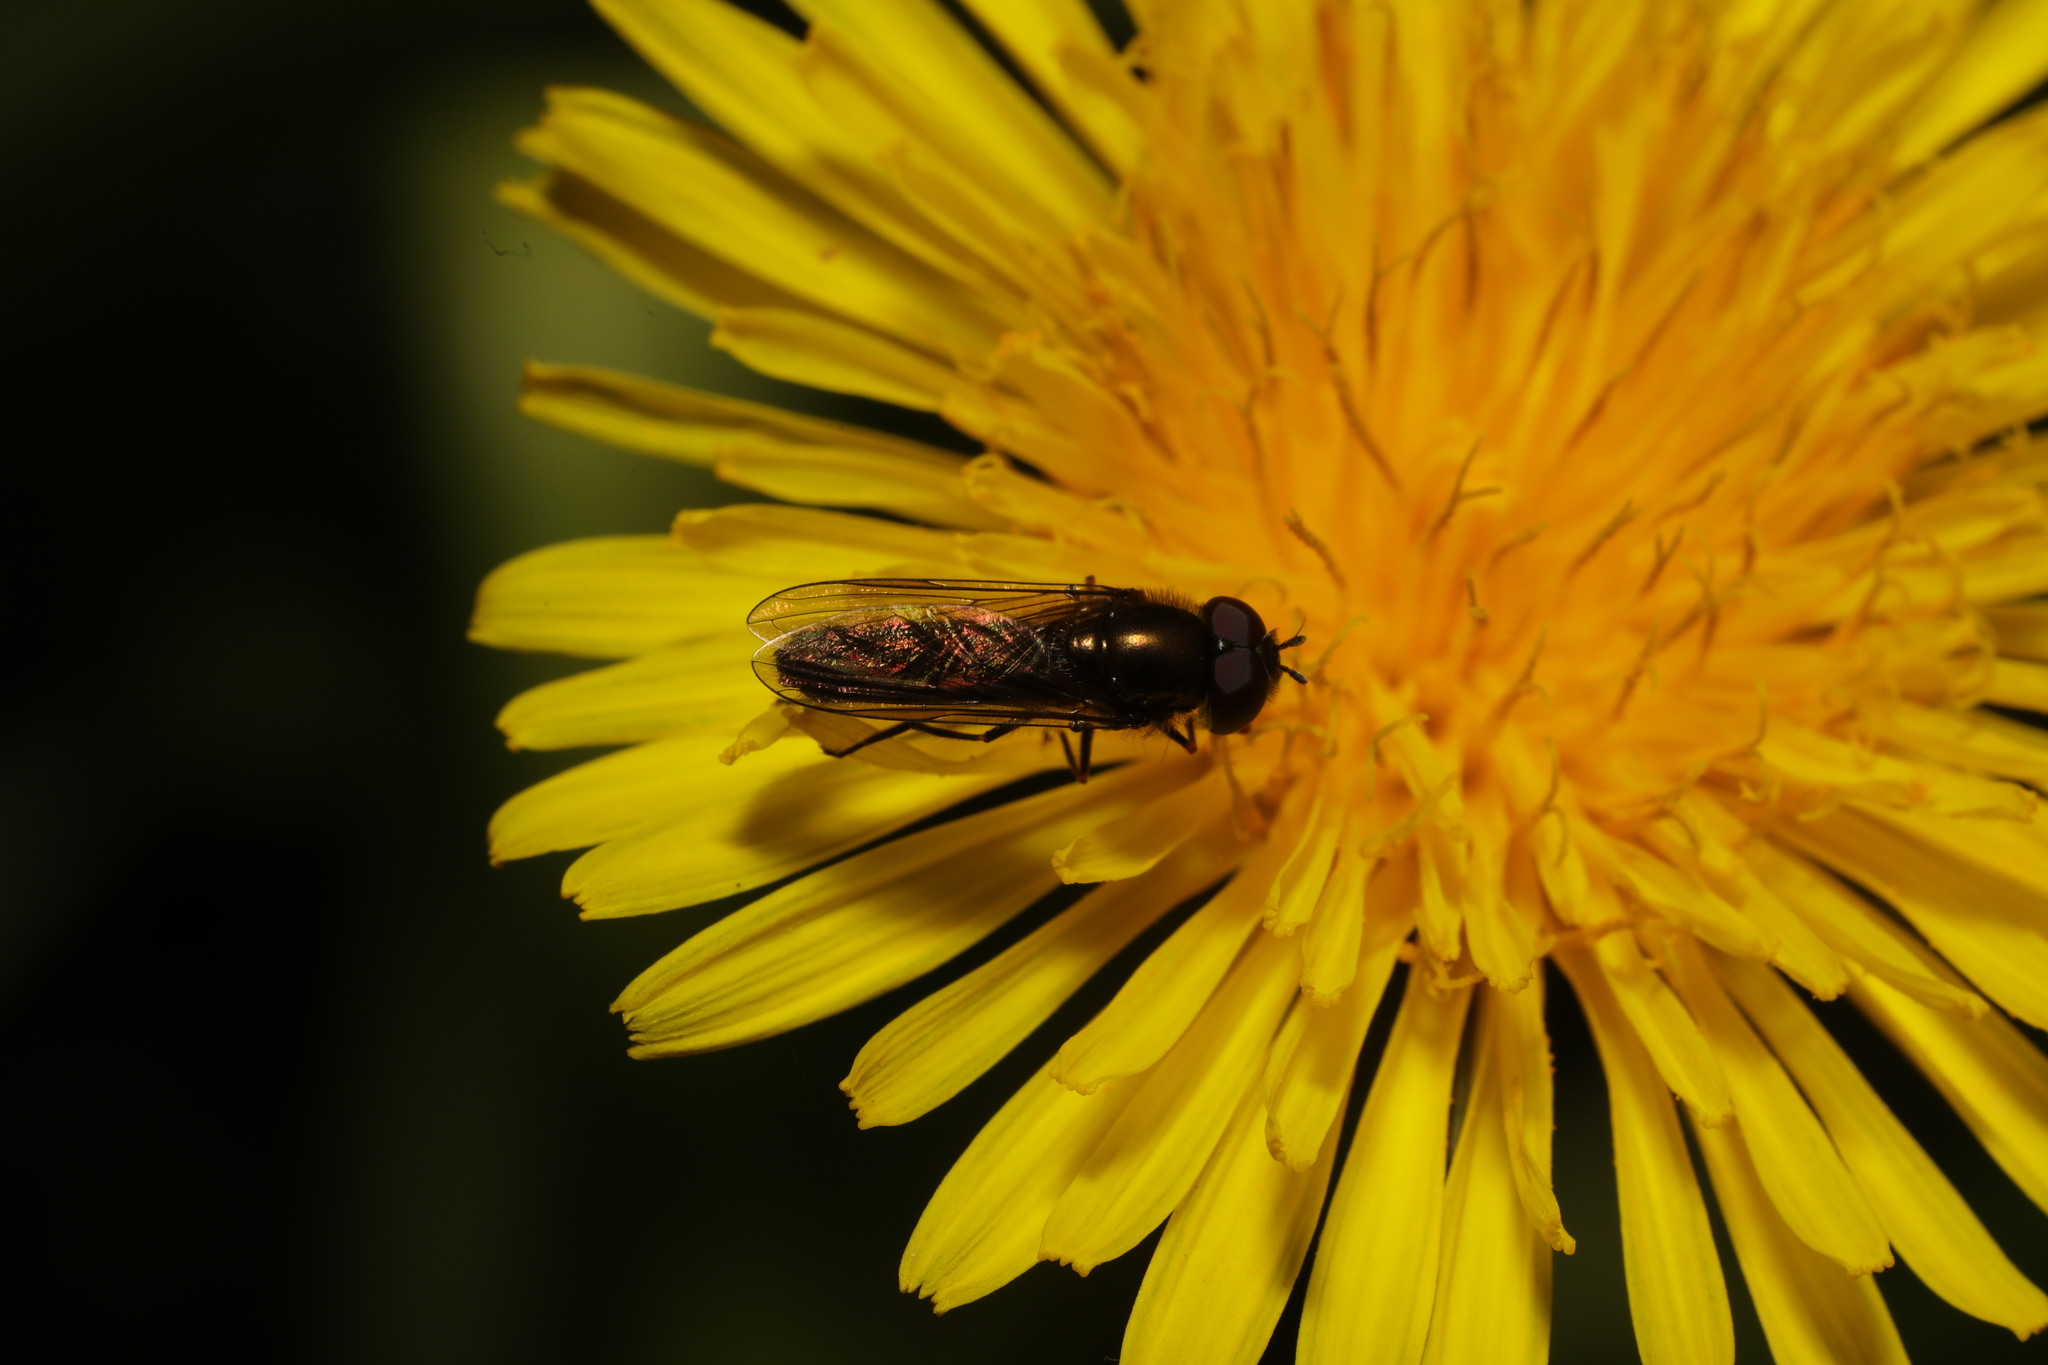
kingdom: Animalia
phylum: Arthropoda
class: Insecta
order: Diptera
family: Syrphidae
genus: Platycheirus
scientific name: Platycheirus albimanus
